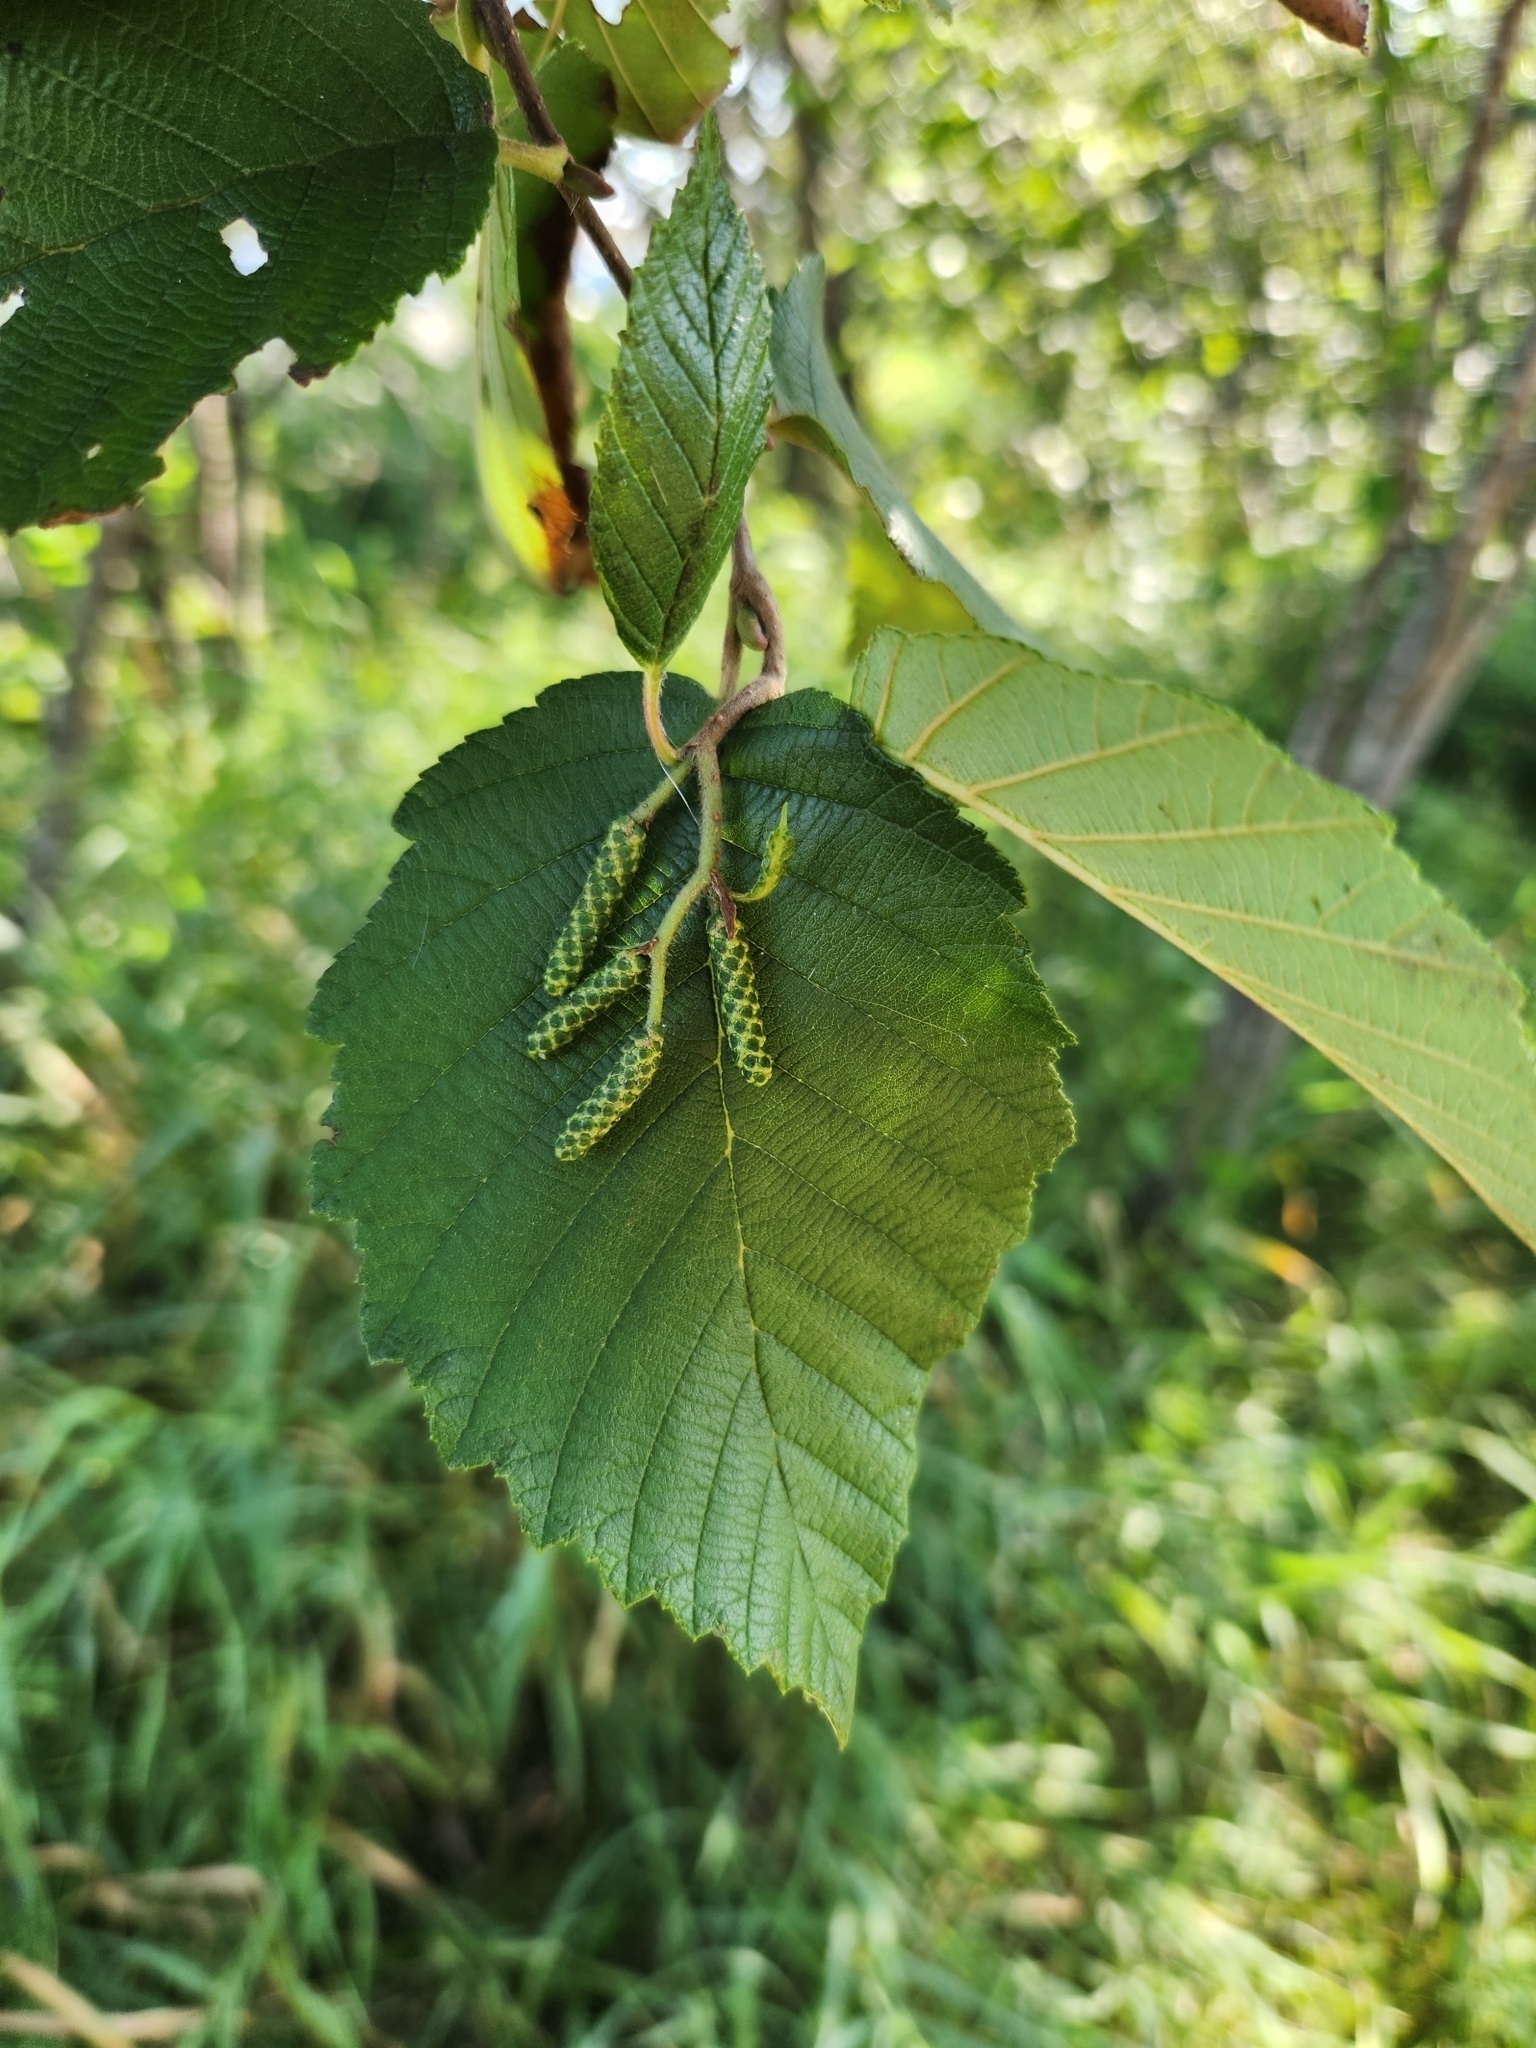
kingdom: Plantae
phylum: Tracheophyta
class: Magnoliopsida
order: Fagales
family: Betulaceae
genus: Alnus
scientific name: Alnus incana
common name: Grey alder
